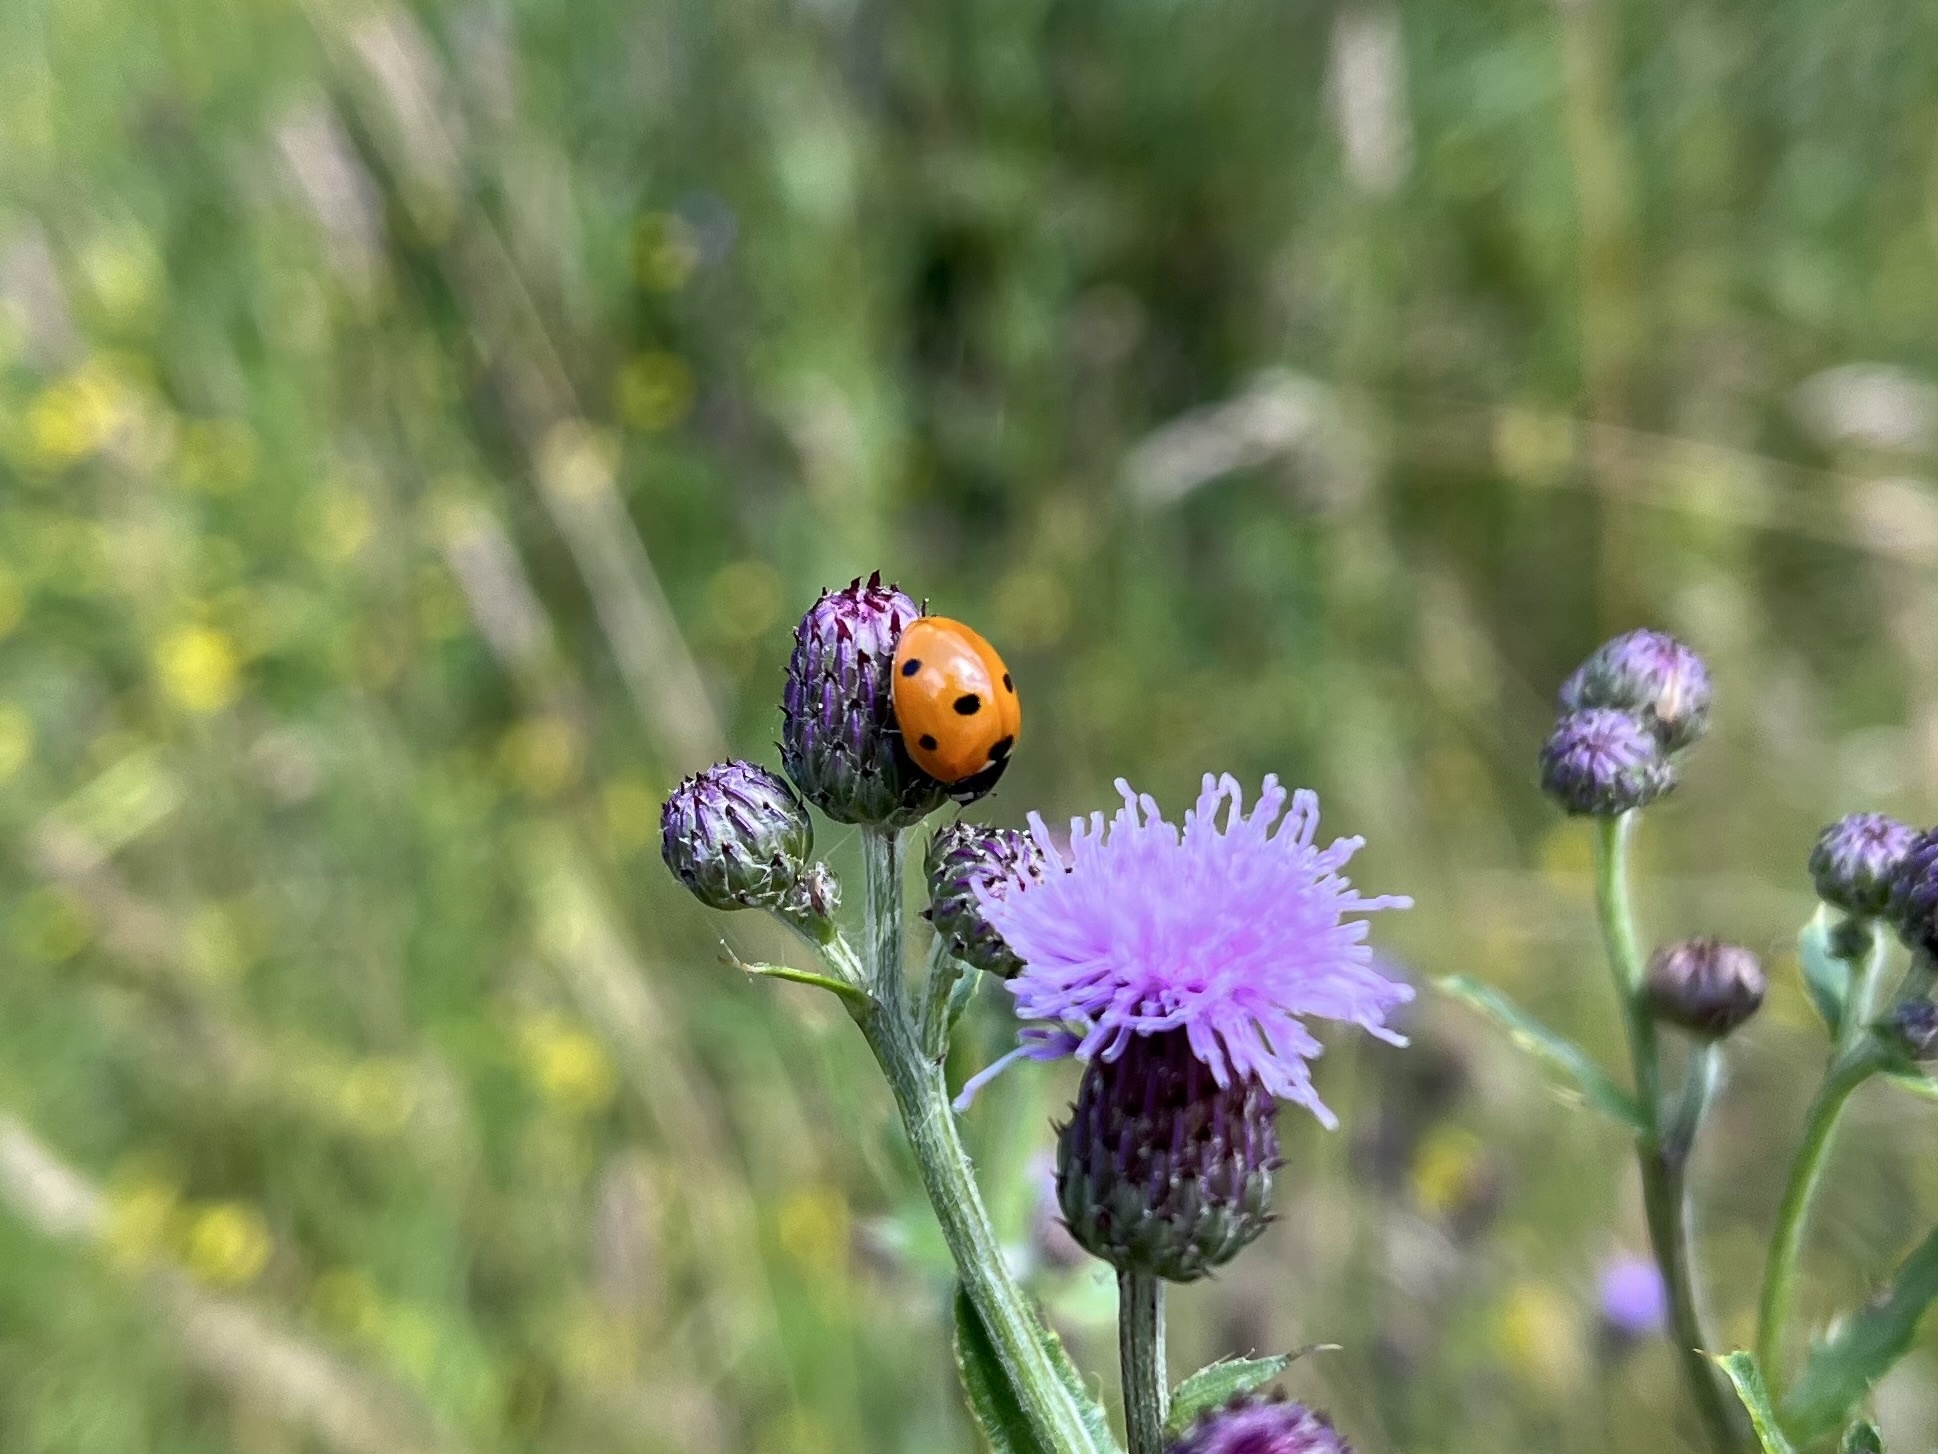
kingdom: Animalia
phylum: Arthropoda
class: Insecta
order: Coleoptera
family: Coccinellidae
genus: Coccinella
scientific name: Coccinella septempunctata
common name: Sevenspotted lady beetle
